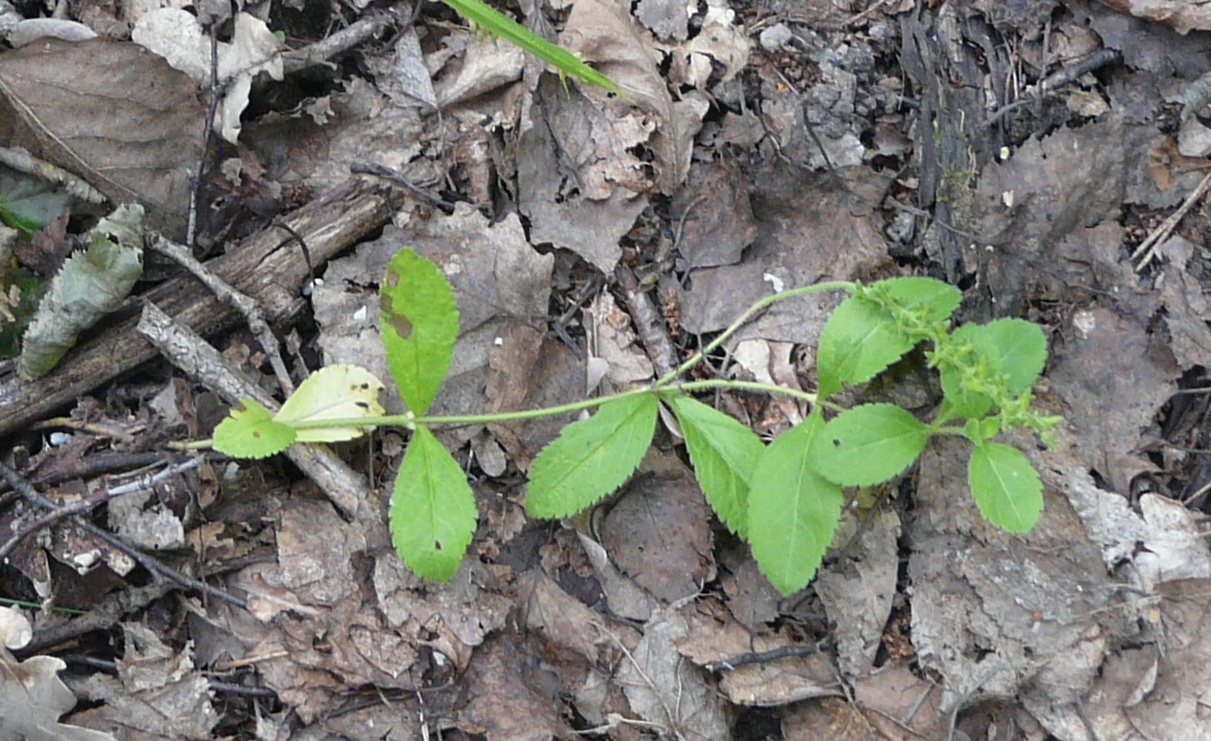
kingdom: Plantae
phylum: Tracheophyta
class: Magnoliopsida
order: Lamiales
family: Plantaginaceae
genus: Veronica
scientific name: Veronica officinalis
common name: Common speedwell
